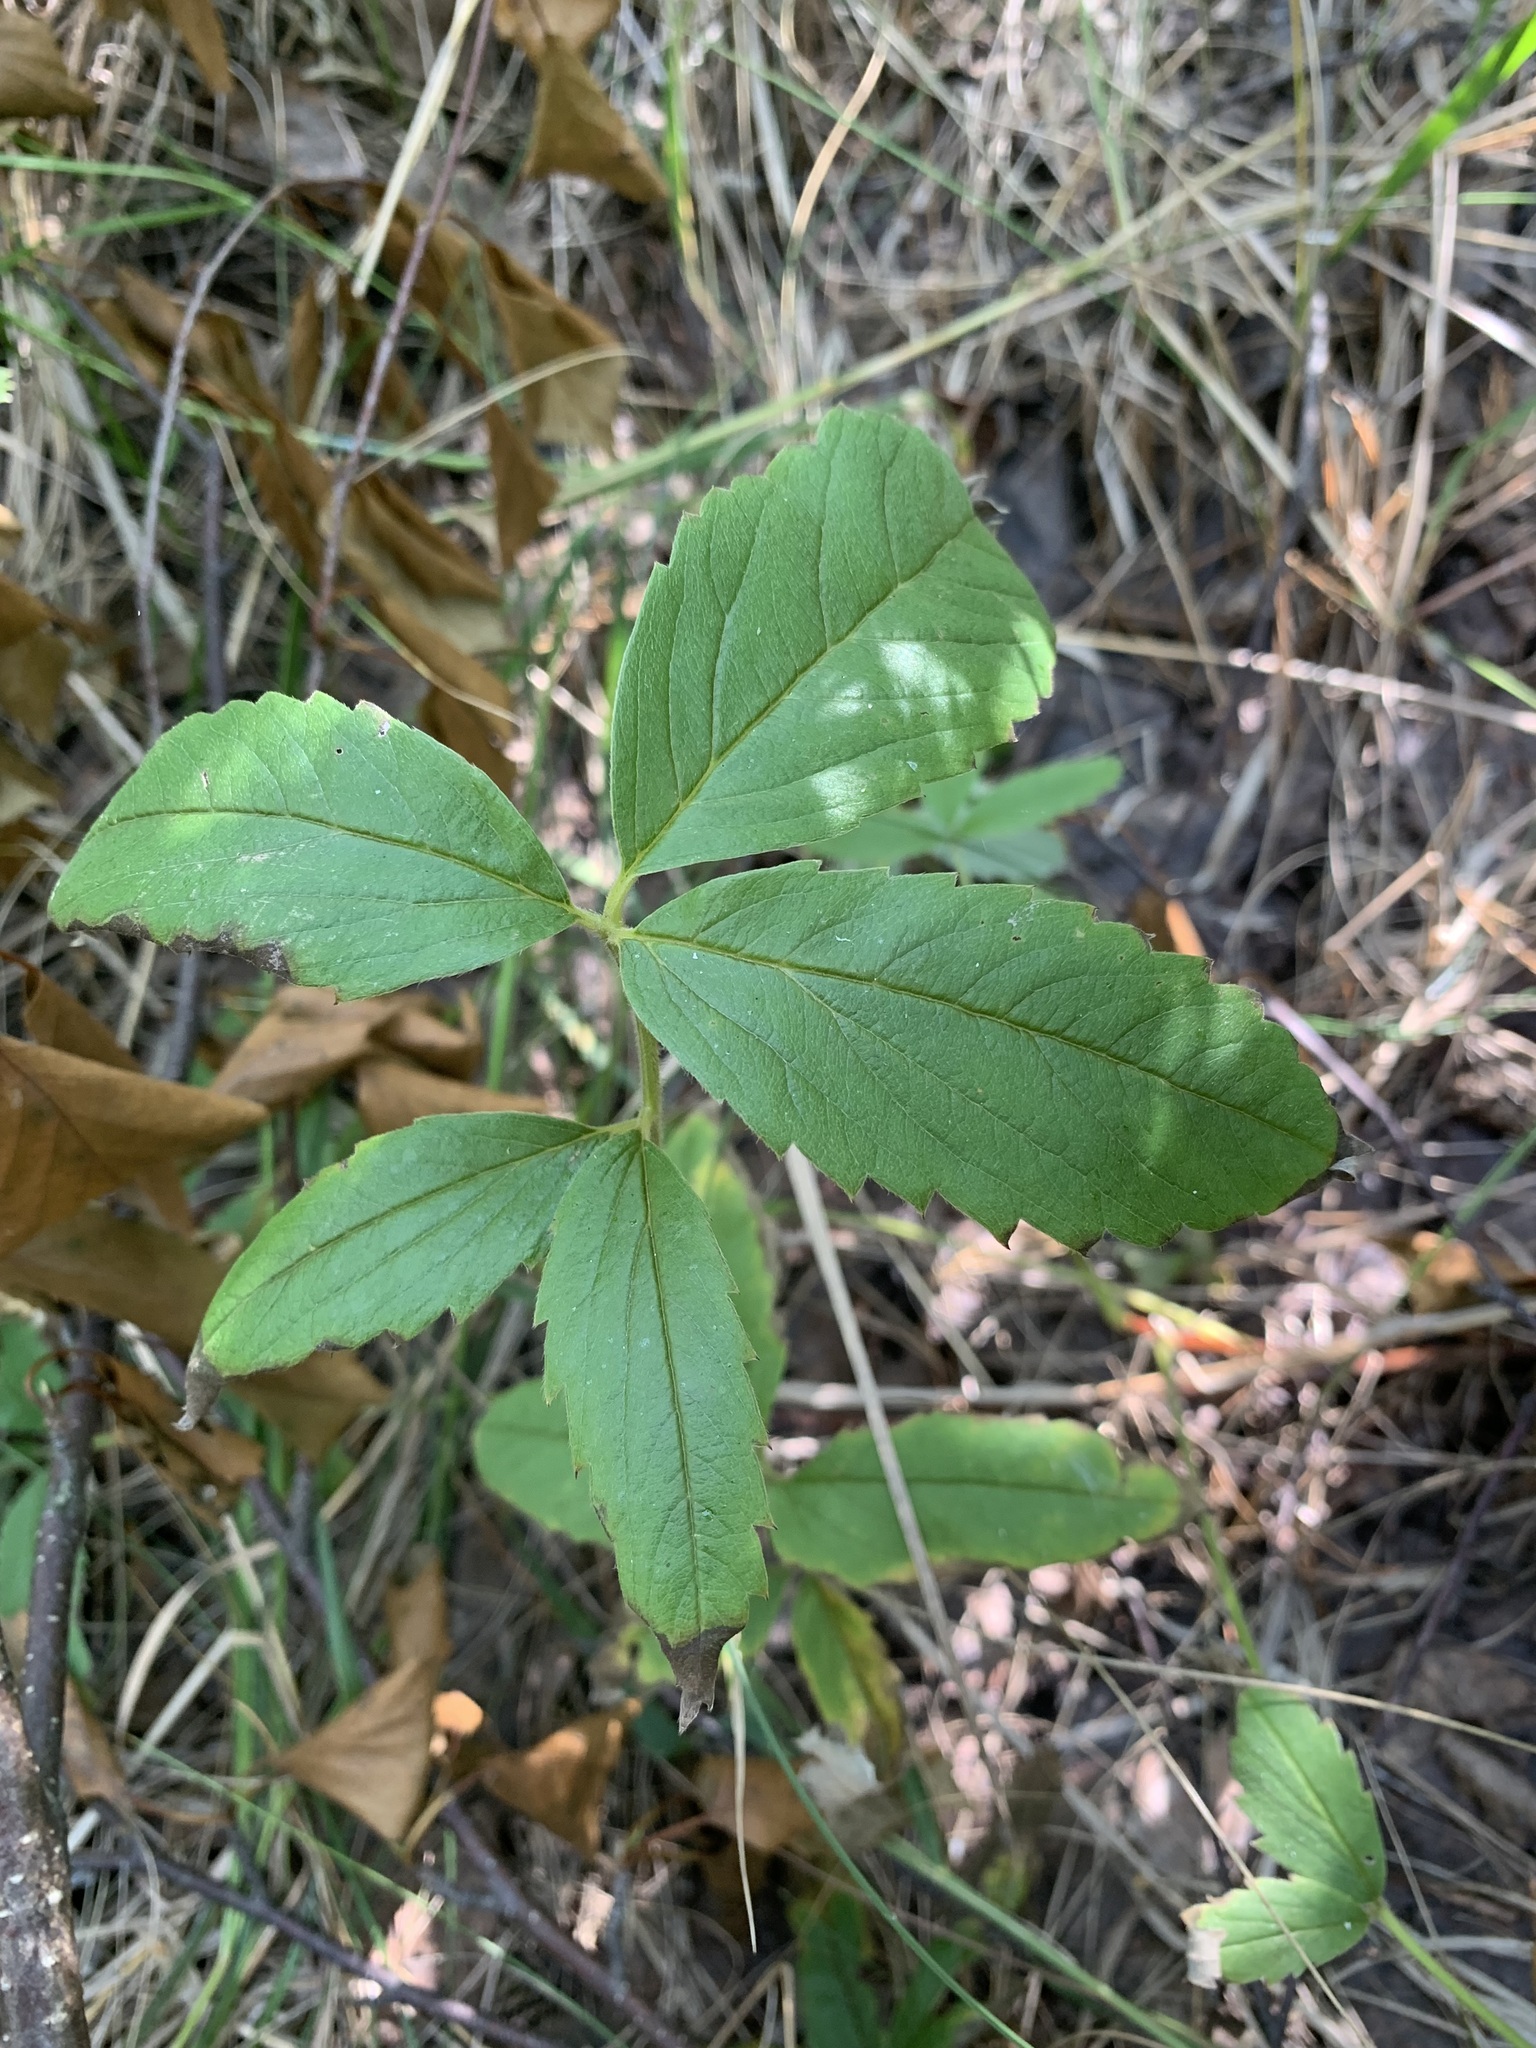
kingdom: Plantae
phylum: Tracheophyta
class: Magnoliopsida
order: Rosales
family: Rosaceae
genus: Comarum
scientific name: Comarum palustre
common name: Marsh cinquefoil
